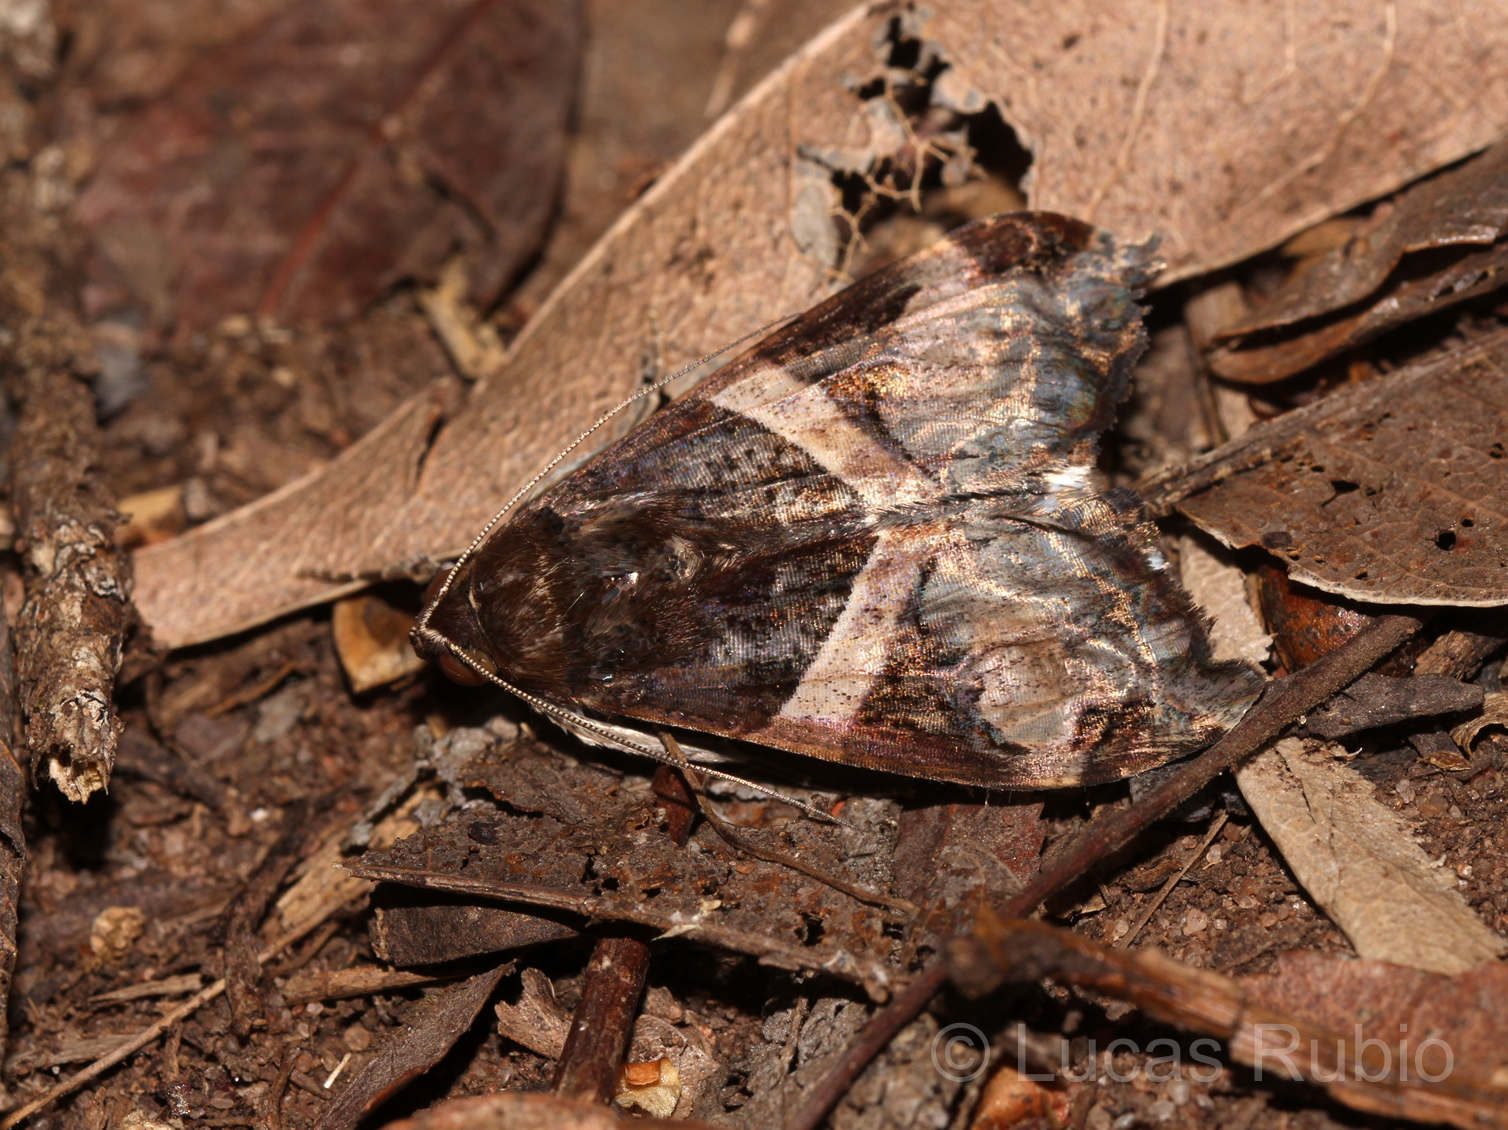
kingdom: Animalia
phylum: Arthropoda
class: Insecta
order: Lepidoptera
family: Erebidae
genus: Melipotis
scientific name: Melipotis fasciolaris
